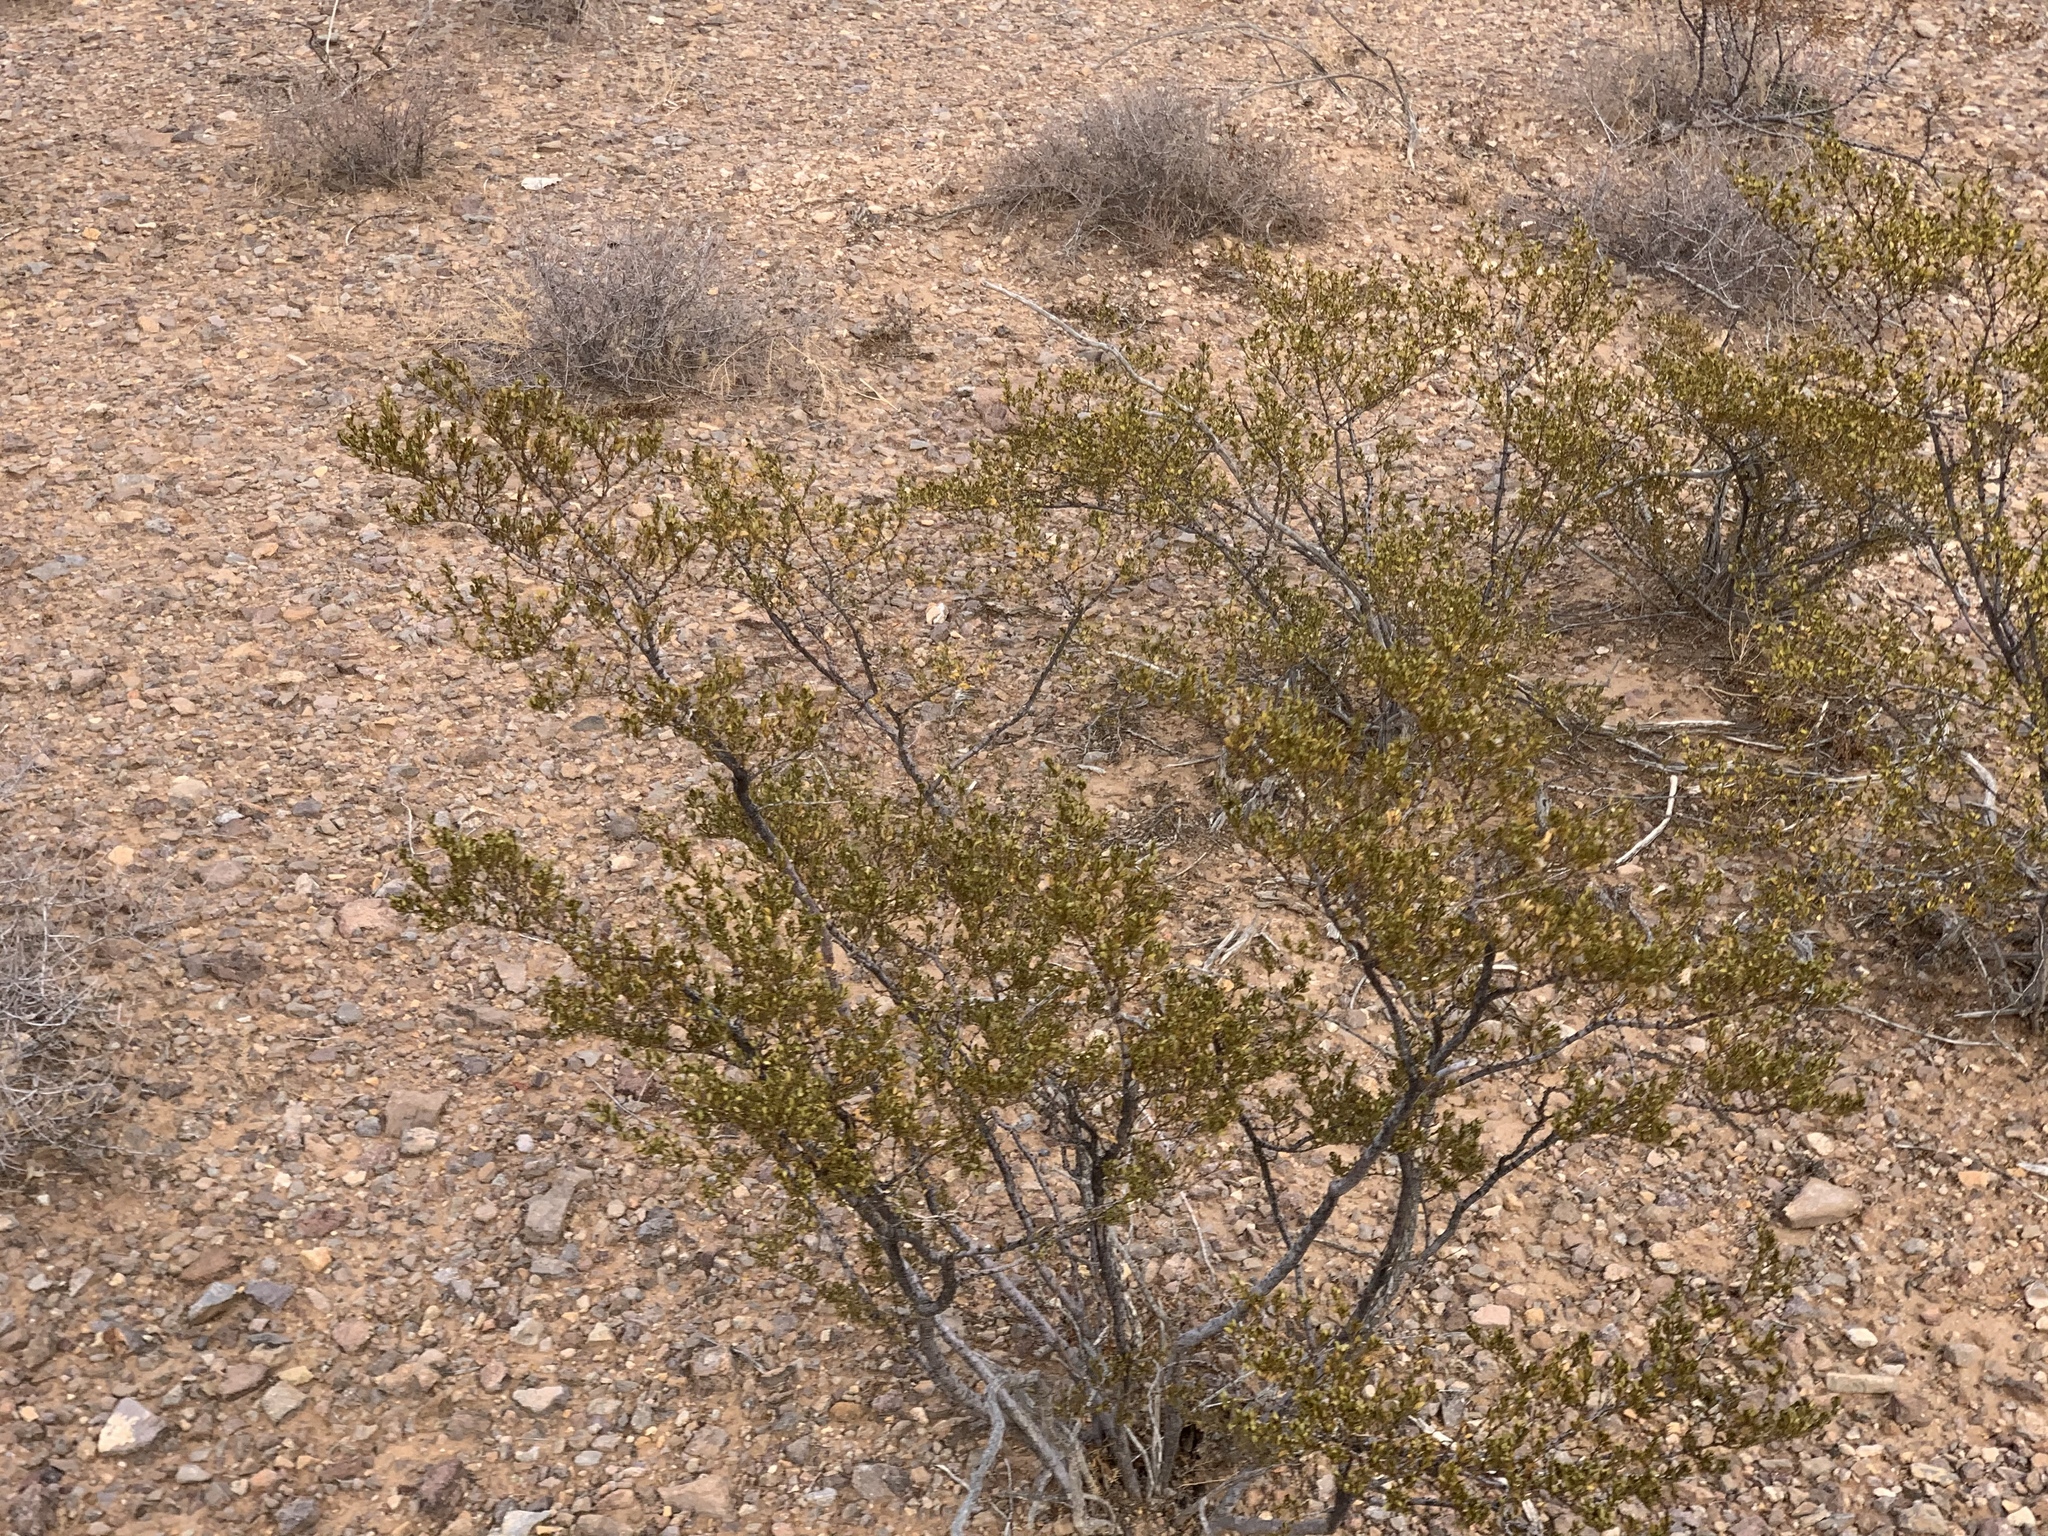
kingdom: Plantae
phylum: Tracheophyta
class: Magnoliopsida
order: Zygophyllales
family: Zygophyllaceae
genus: Larrea
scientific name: Larrea tridentata
